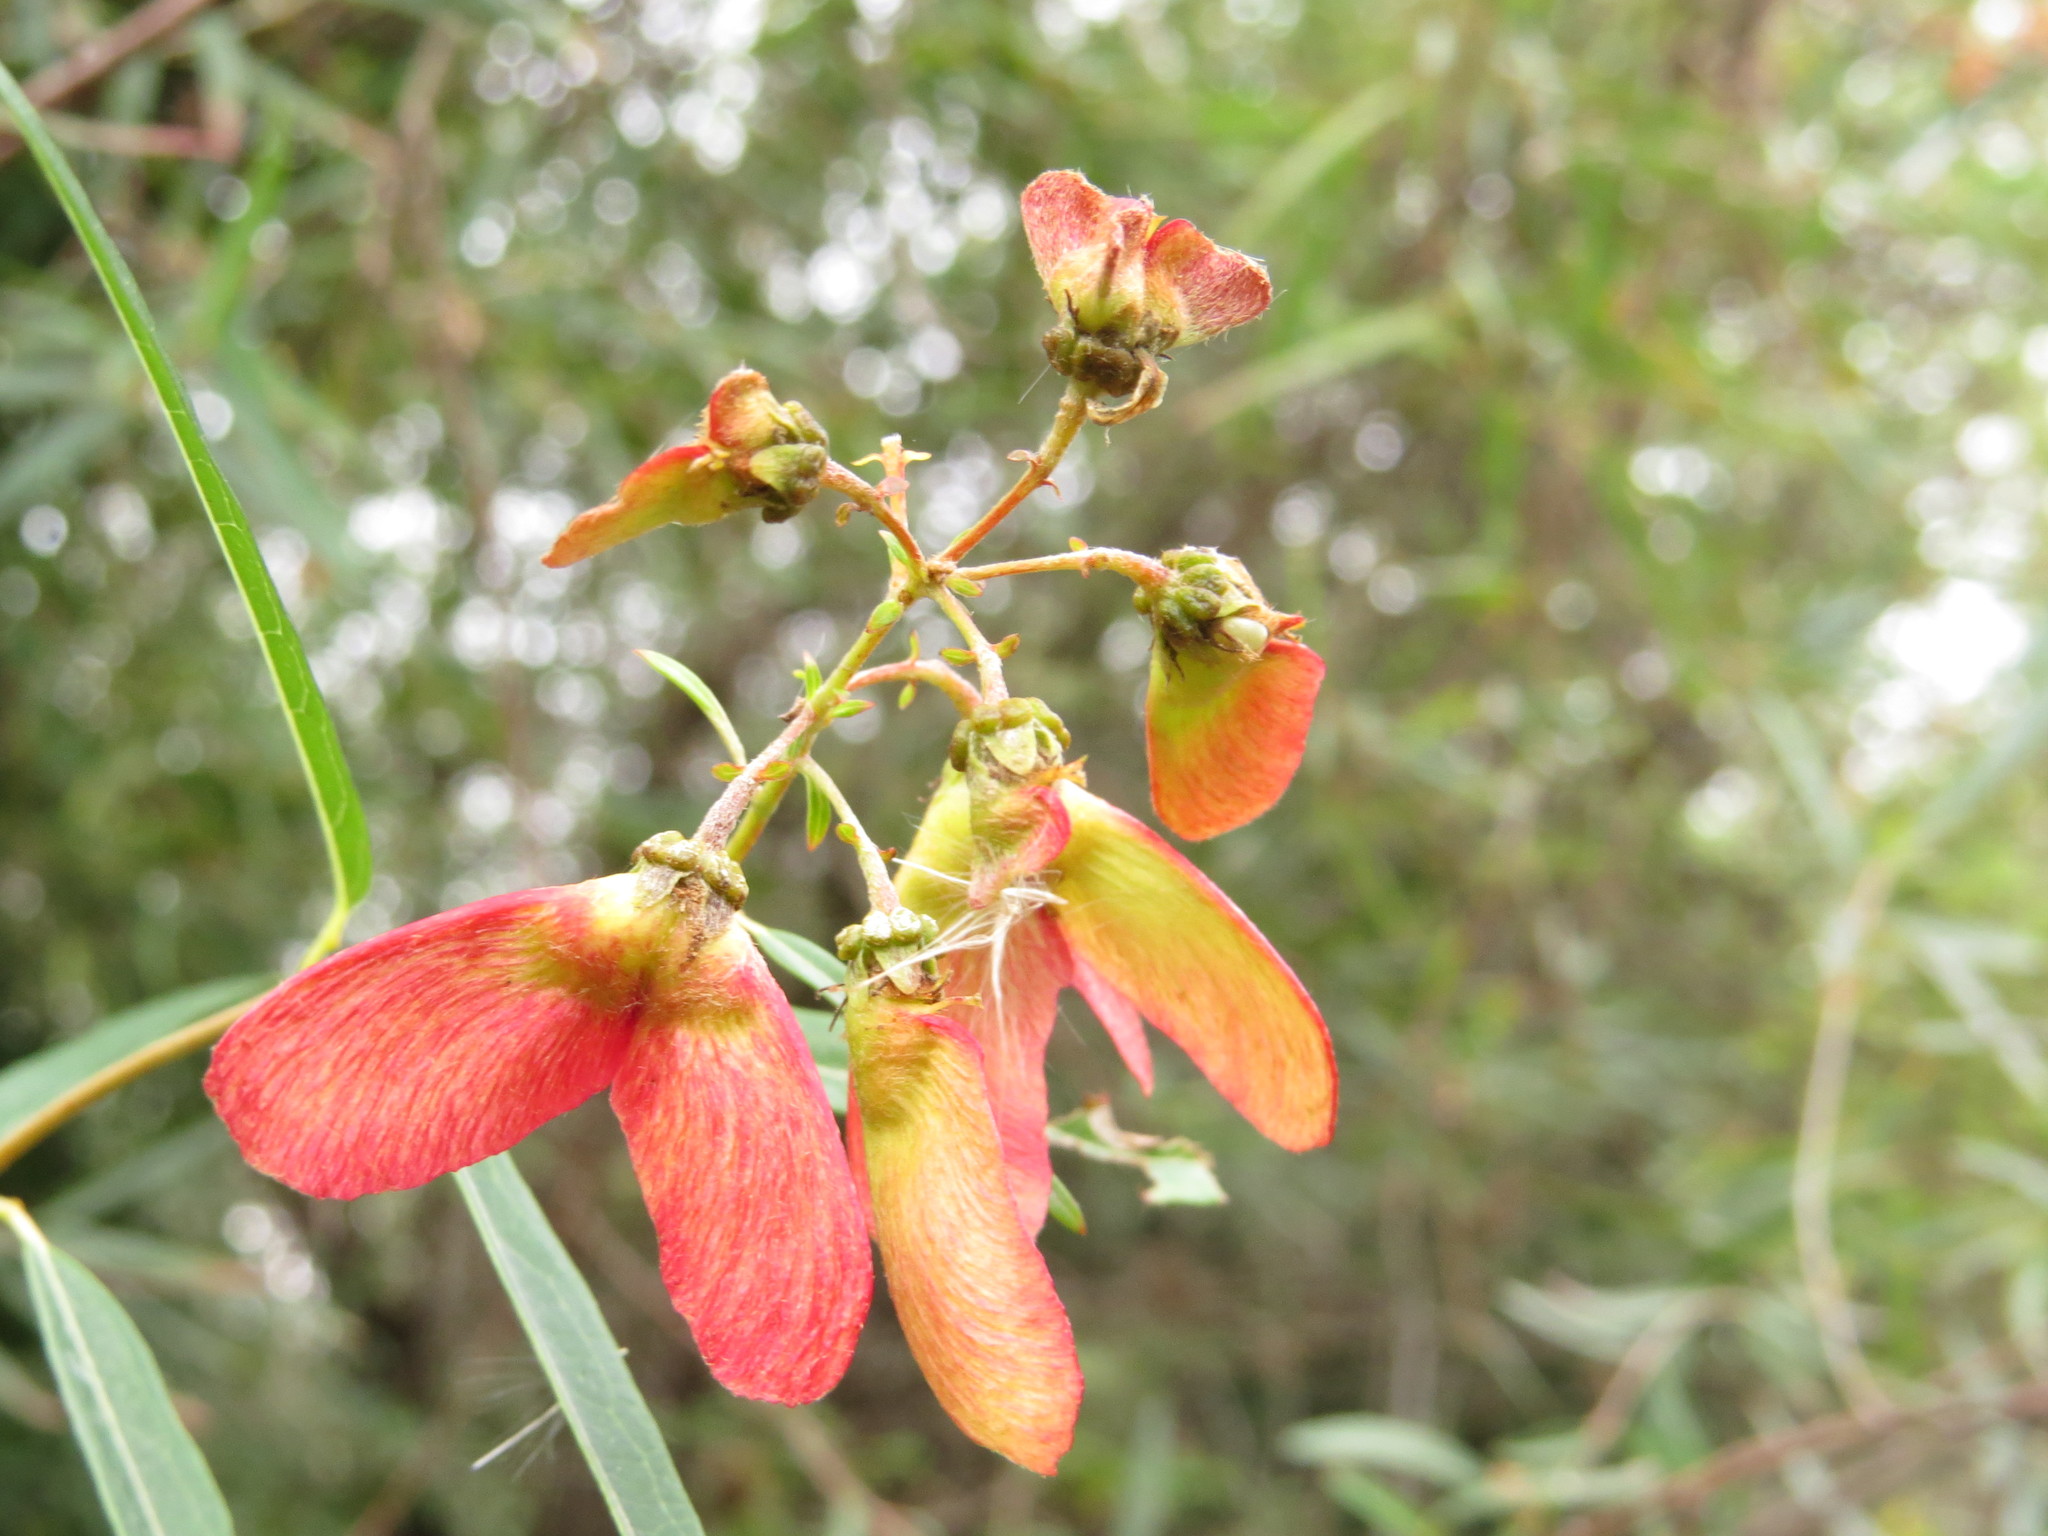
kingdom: Plantae
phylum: Tracheophyta
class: Magnoliopsida
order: Malpighiales
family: Malpighiaceae
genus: Heteropterys
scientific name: Heteropterys glabra
